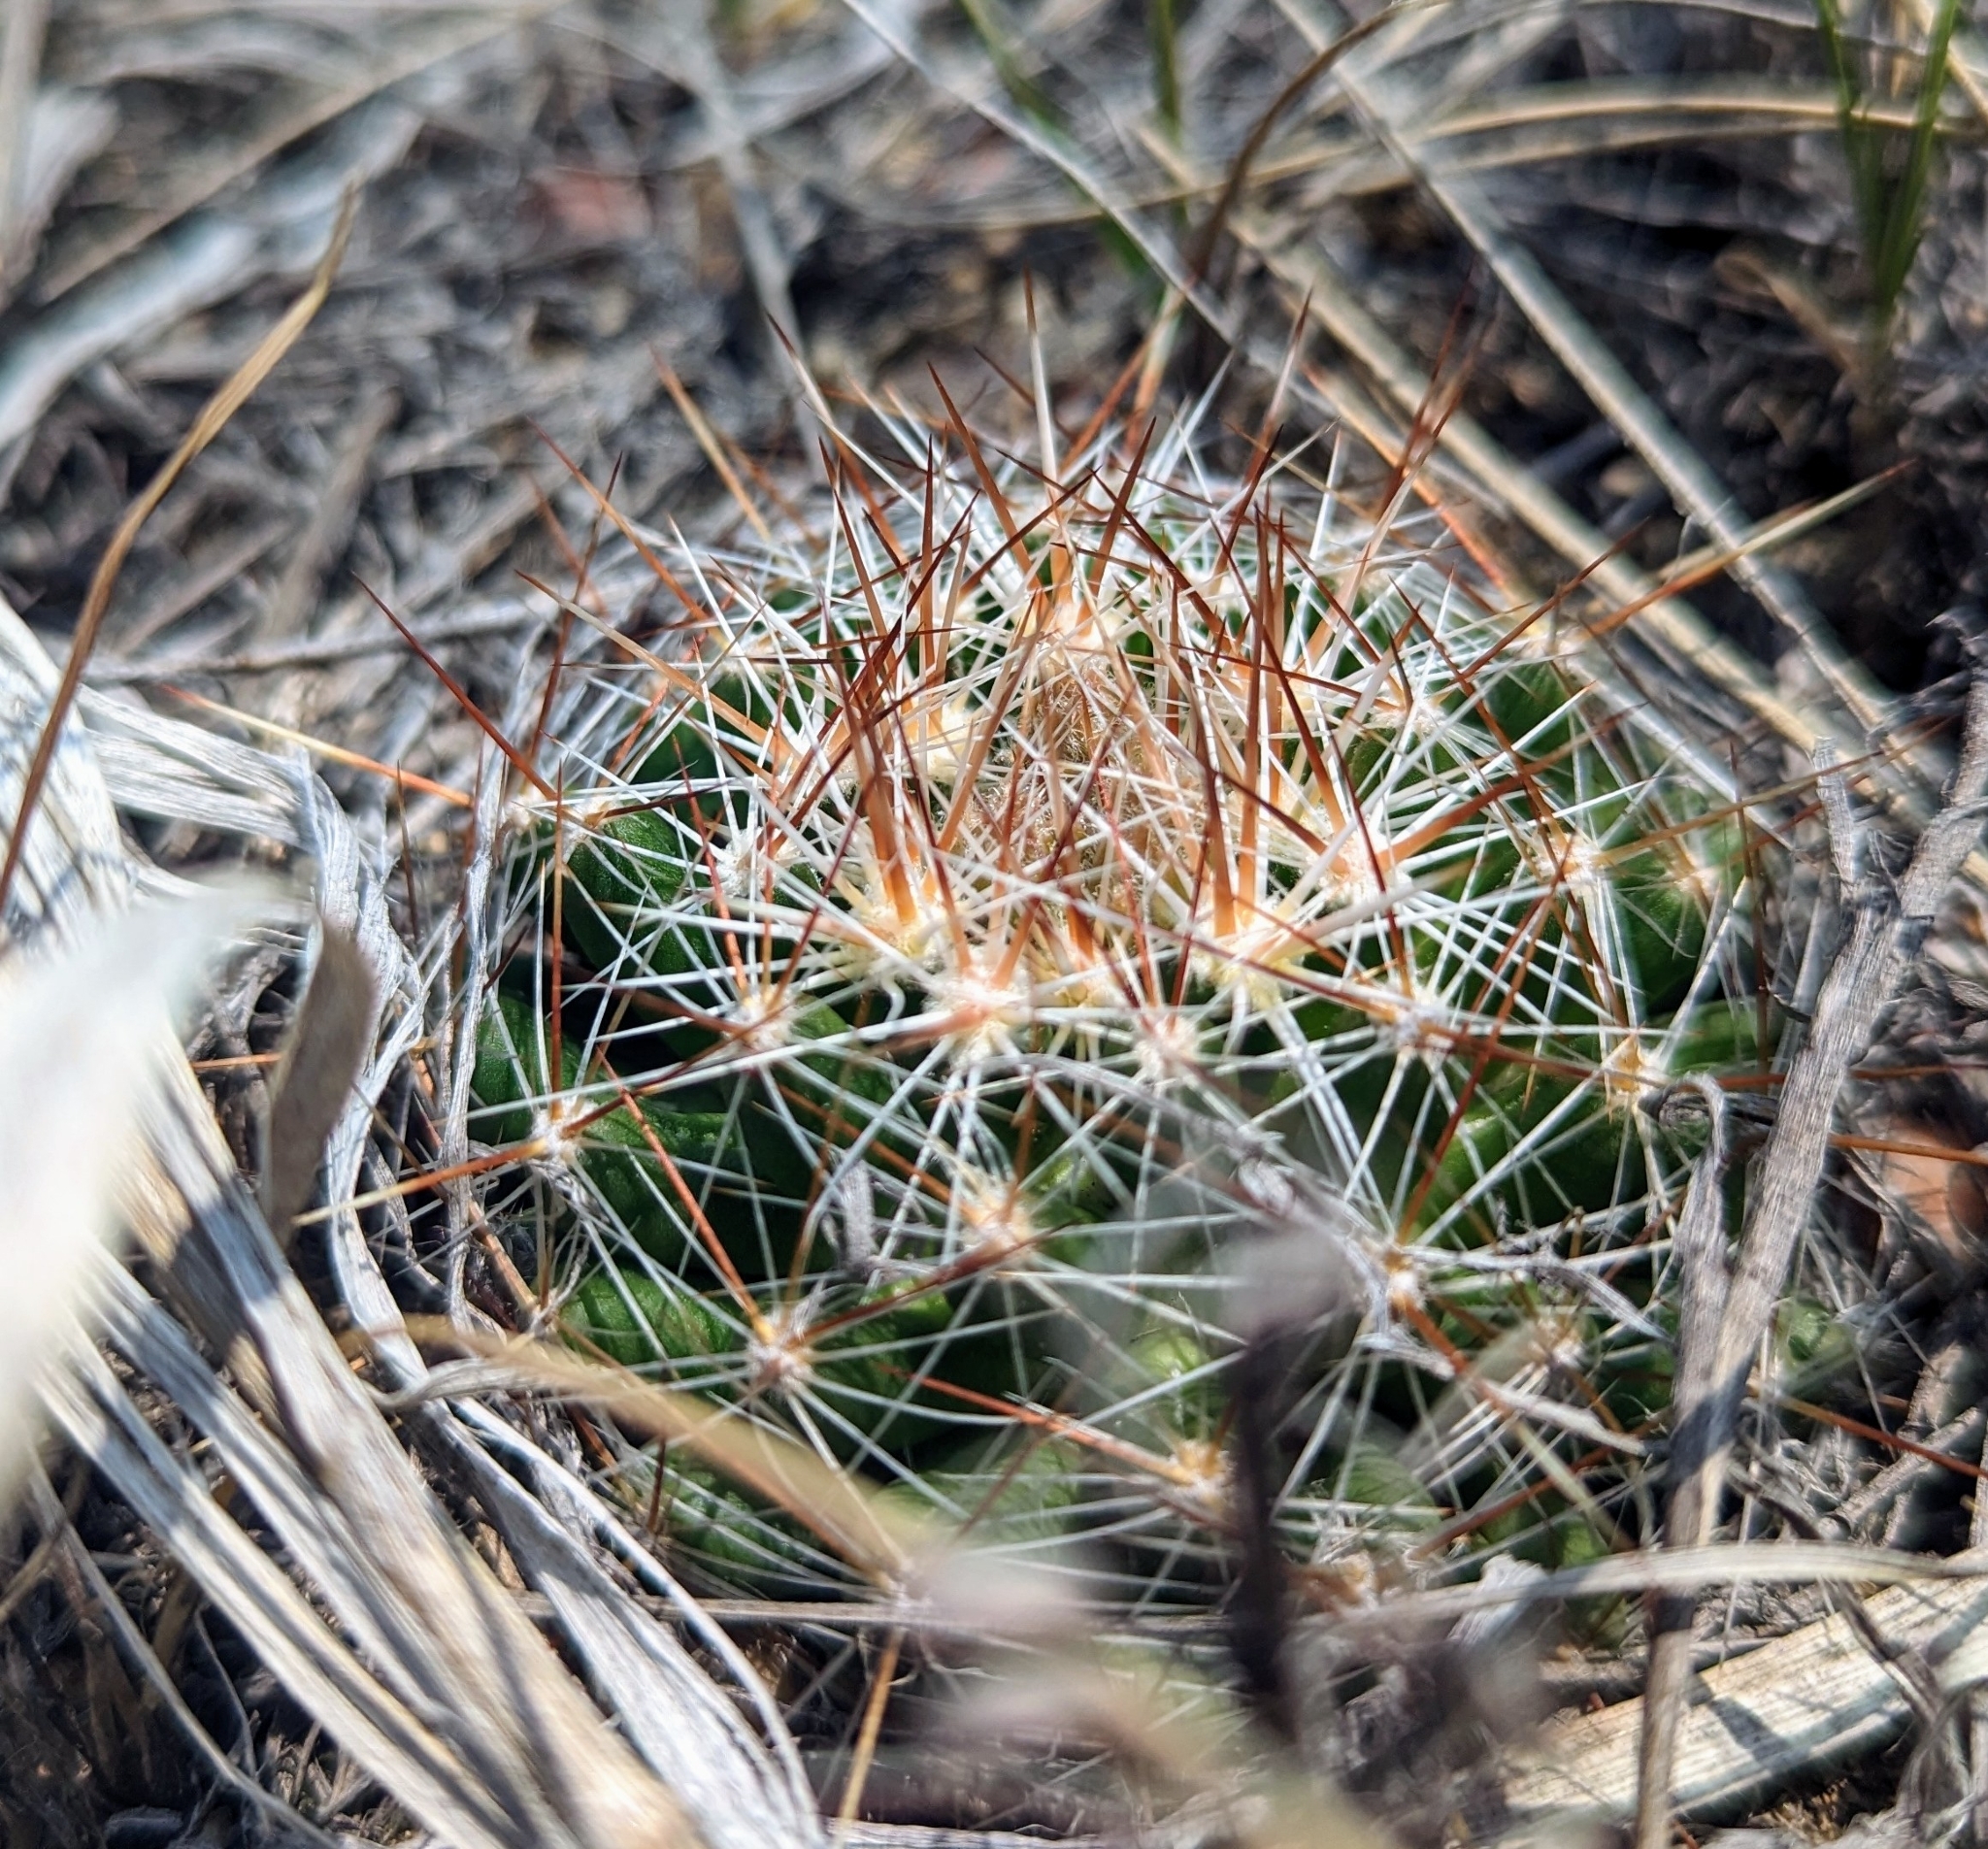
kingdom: Plantae
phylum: Tracheophyta
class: Magnoliopsida
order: Caryophyllales
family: Cactaceae
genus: Pelecyphora
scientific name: Pelecyphora vivipara
